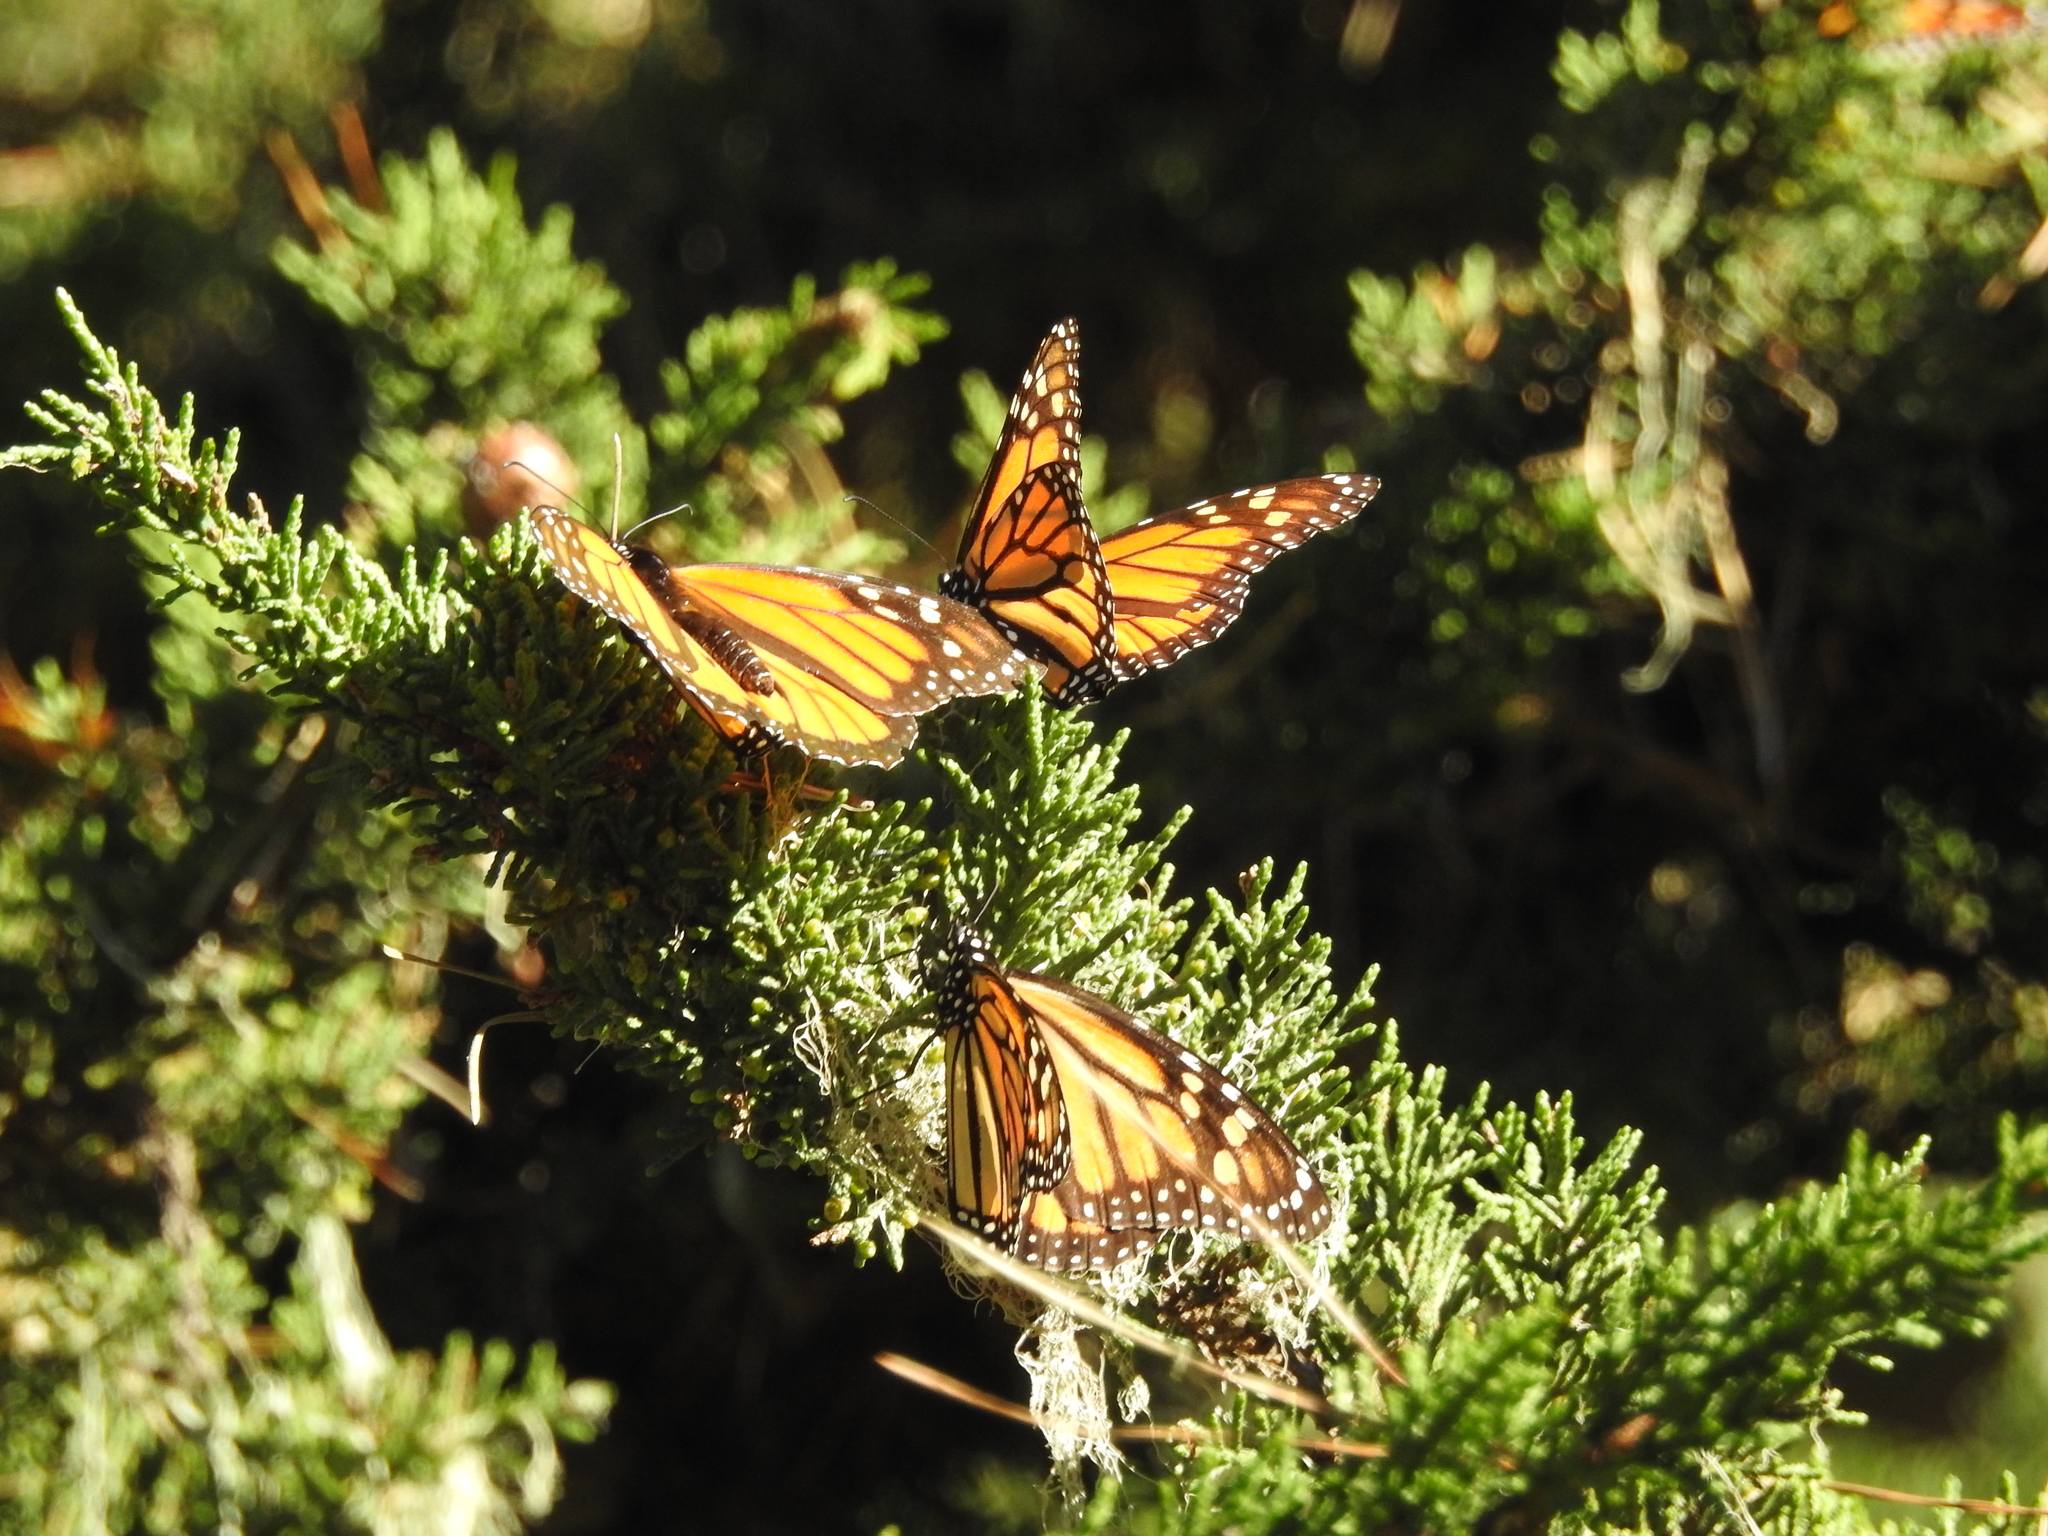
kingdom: Animalia
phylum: Arthropoda
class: Insecta
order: Lepidoptera
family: Nymphalidae
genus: Danaus
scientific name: Danaus plexippus
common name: Monarch
